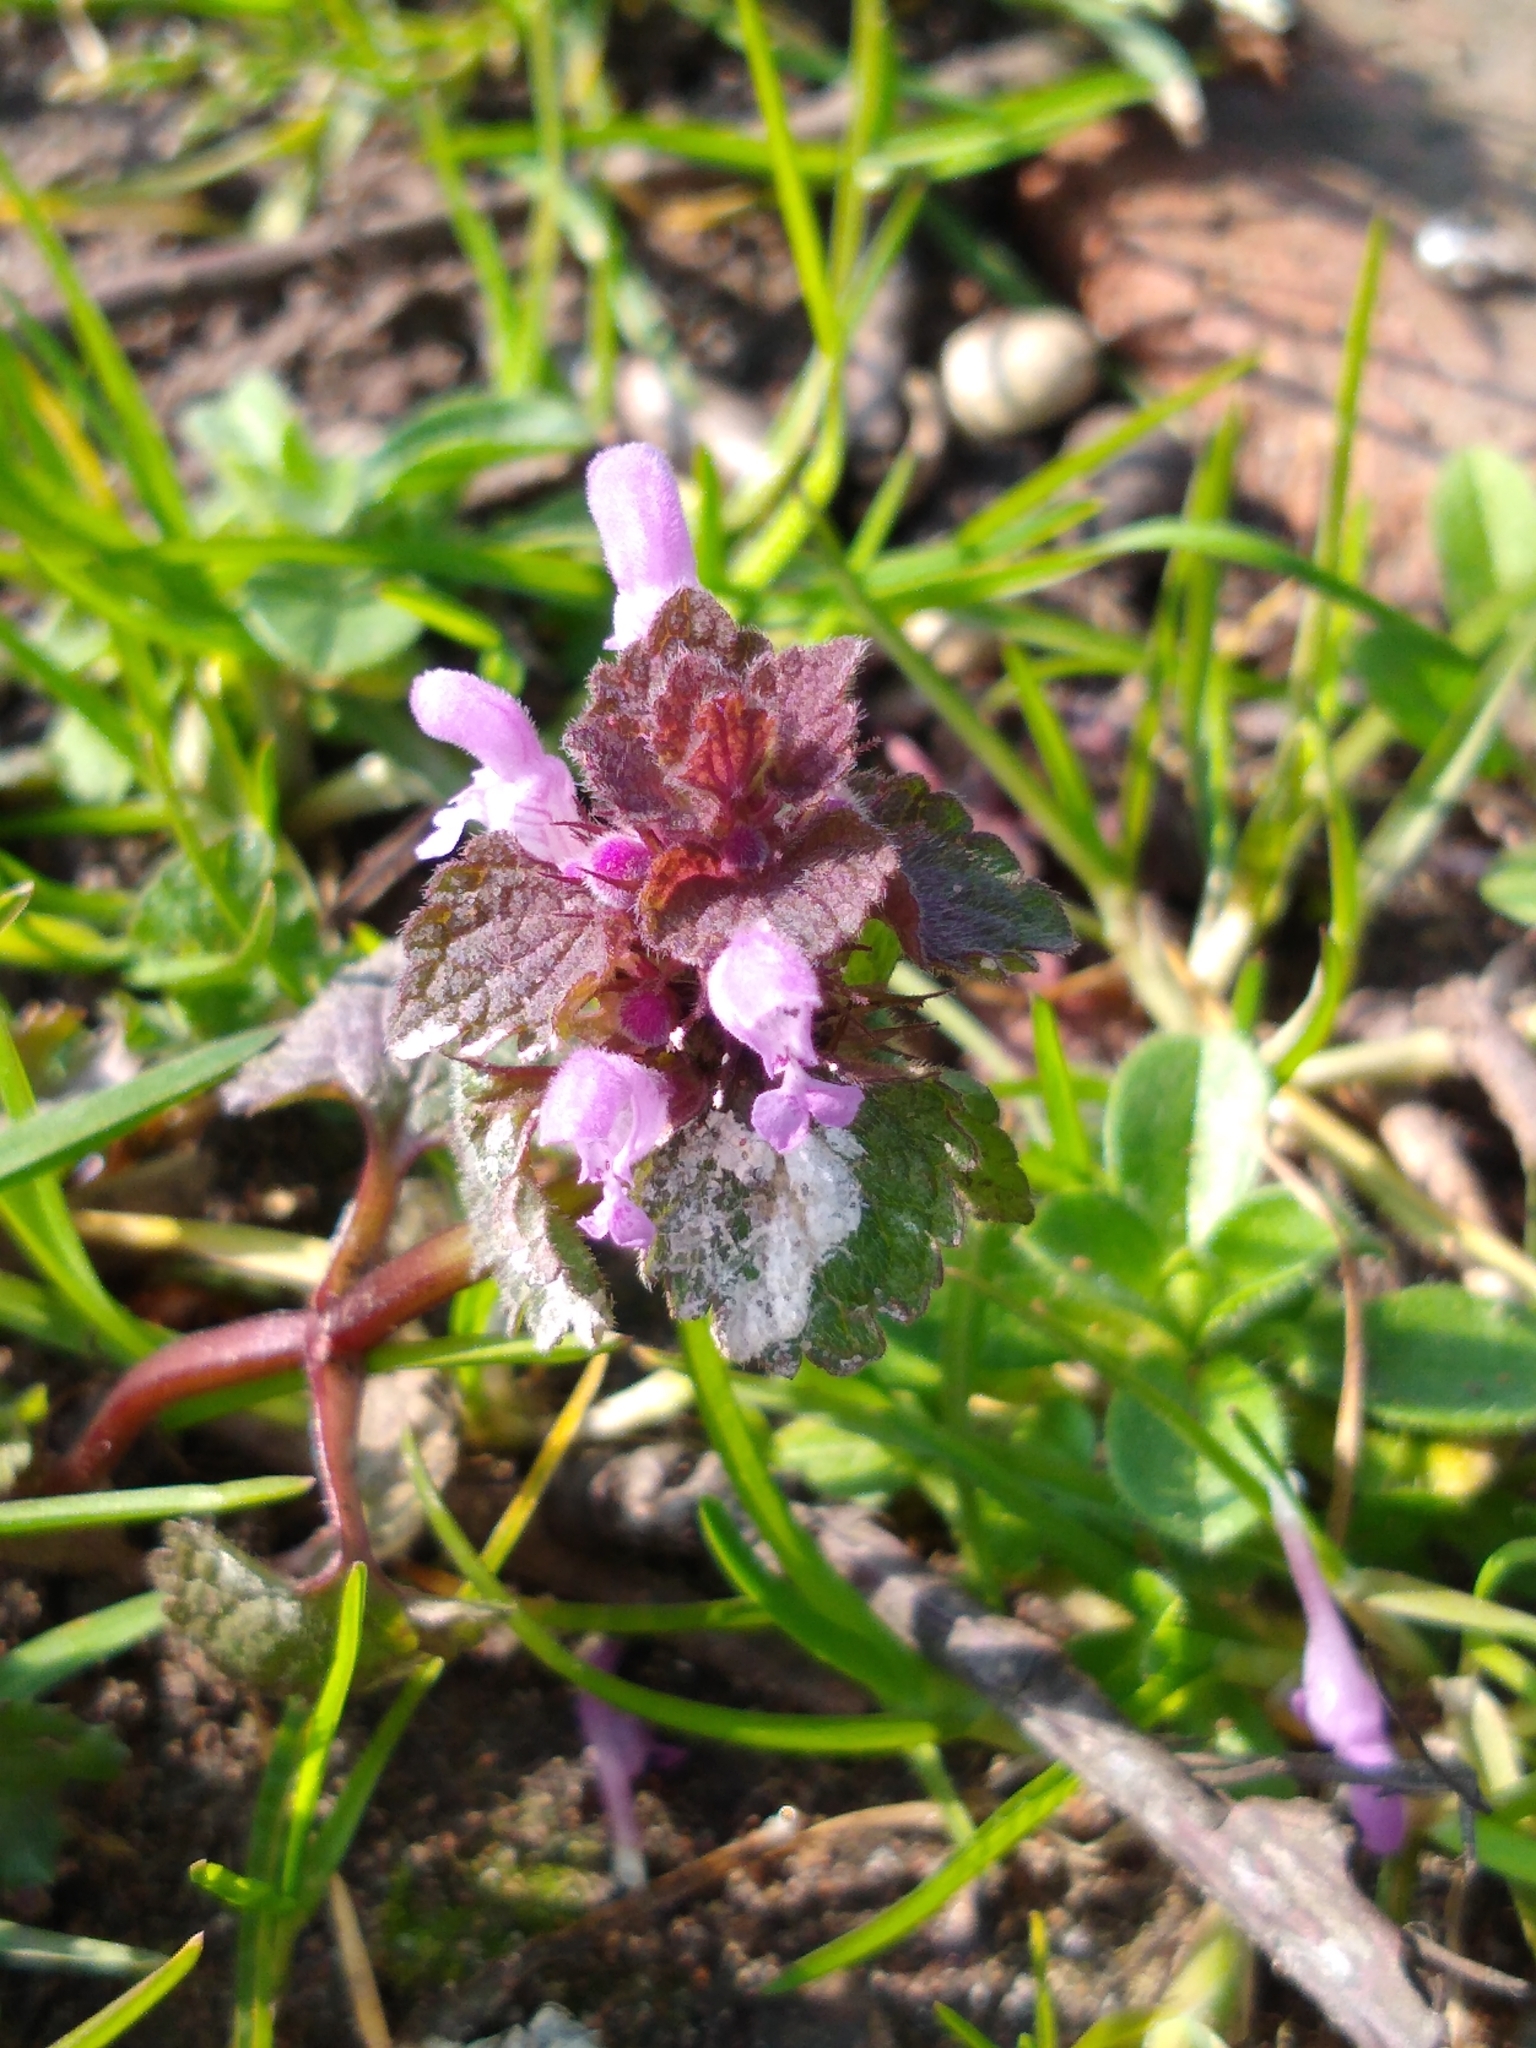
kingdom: Plantae
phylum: Tracheophyta
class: Magnoliopsida
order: Lamiales
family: Lamiaceae
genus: Lamium
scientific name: Lamium purpureum
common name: Red dead-nettle
